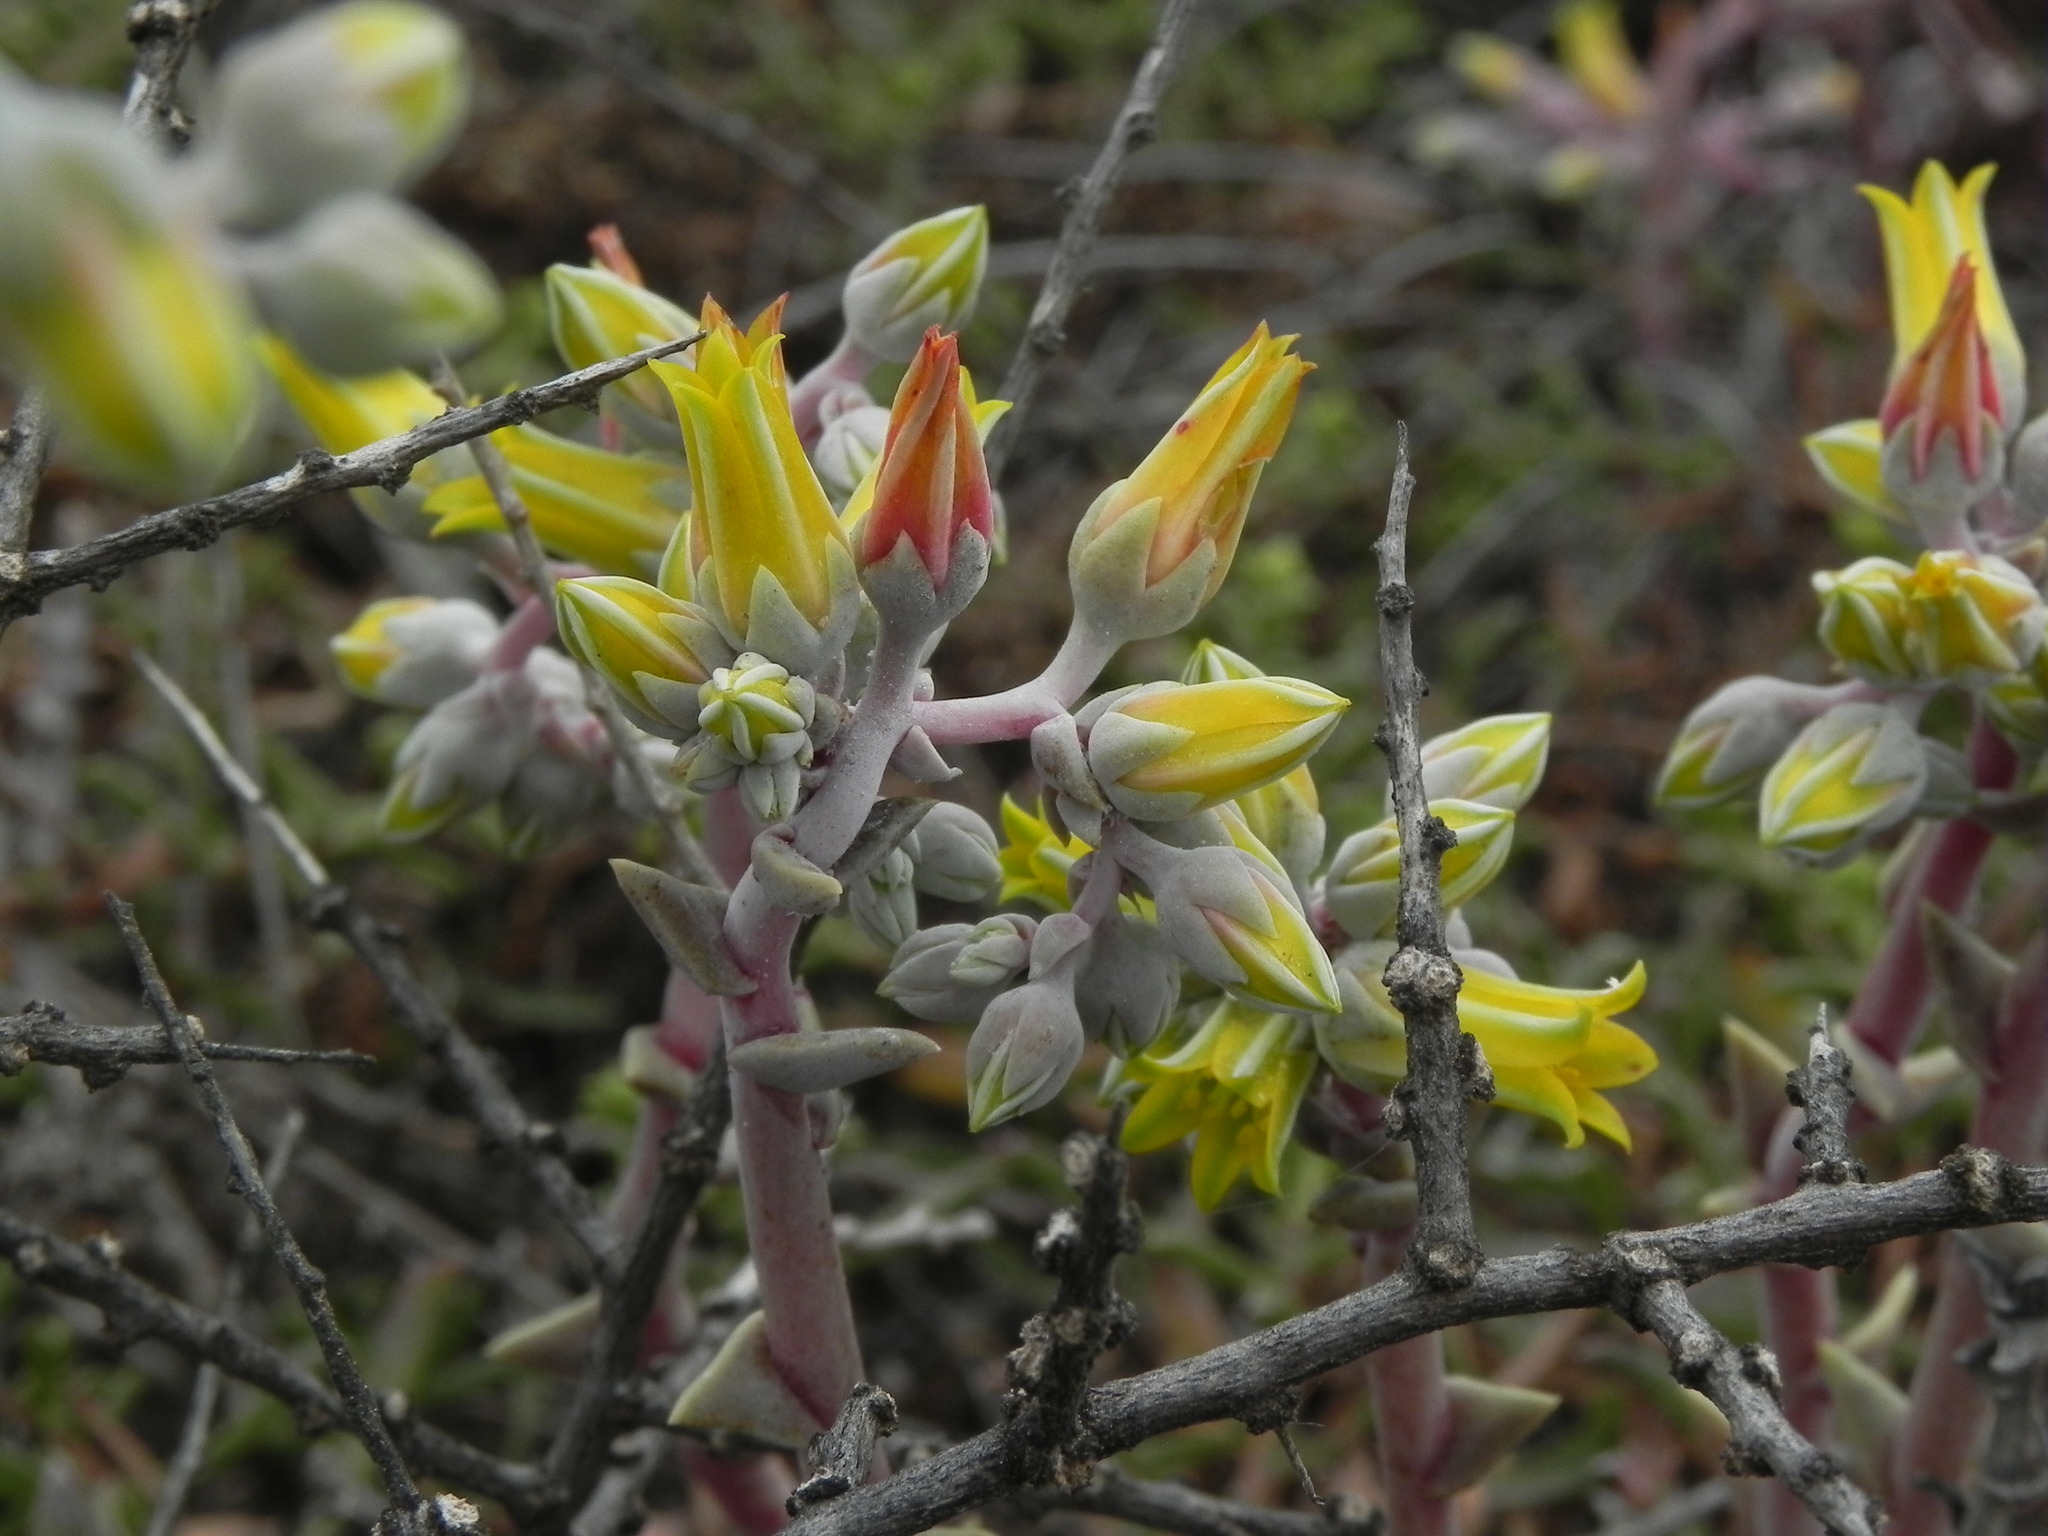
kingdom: Plantae
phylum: Tracheophyta
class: Magnoliopsida
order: Saxifragales
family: Crassulaceae
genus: Dudleya
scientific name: Dudleya caespitosa
